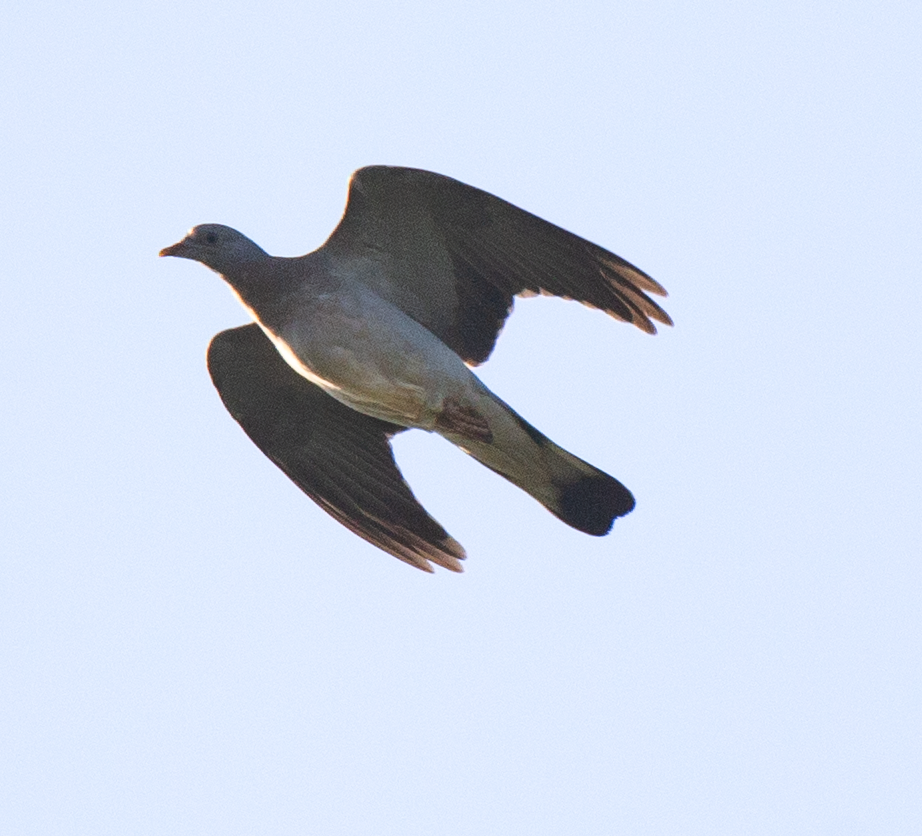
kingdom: Animalia
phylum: Chordata
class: Aves
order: Columbiformes
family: Columbidae
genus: Columba
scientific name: Columba palumbus
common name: Common wood pigeon
